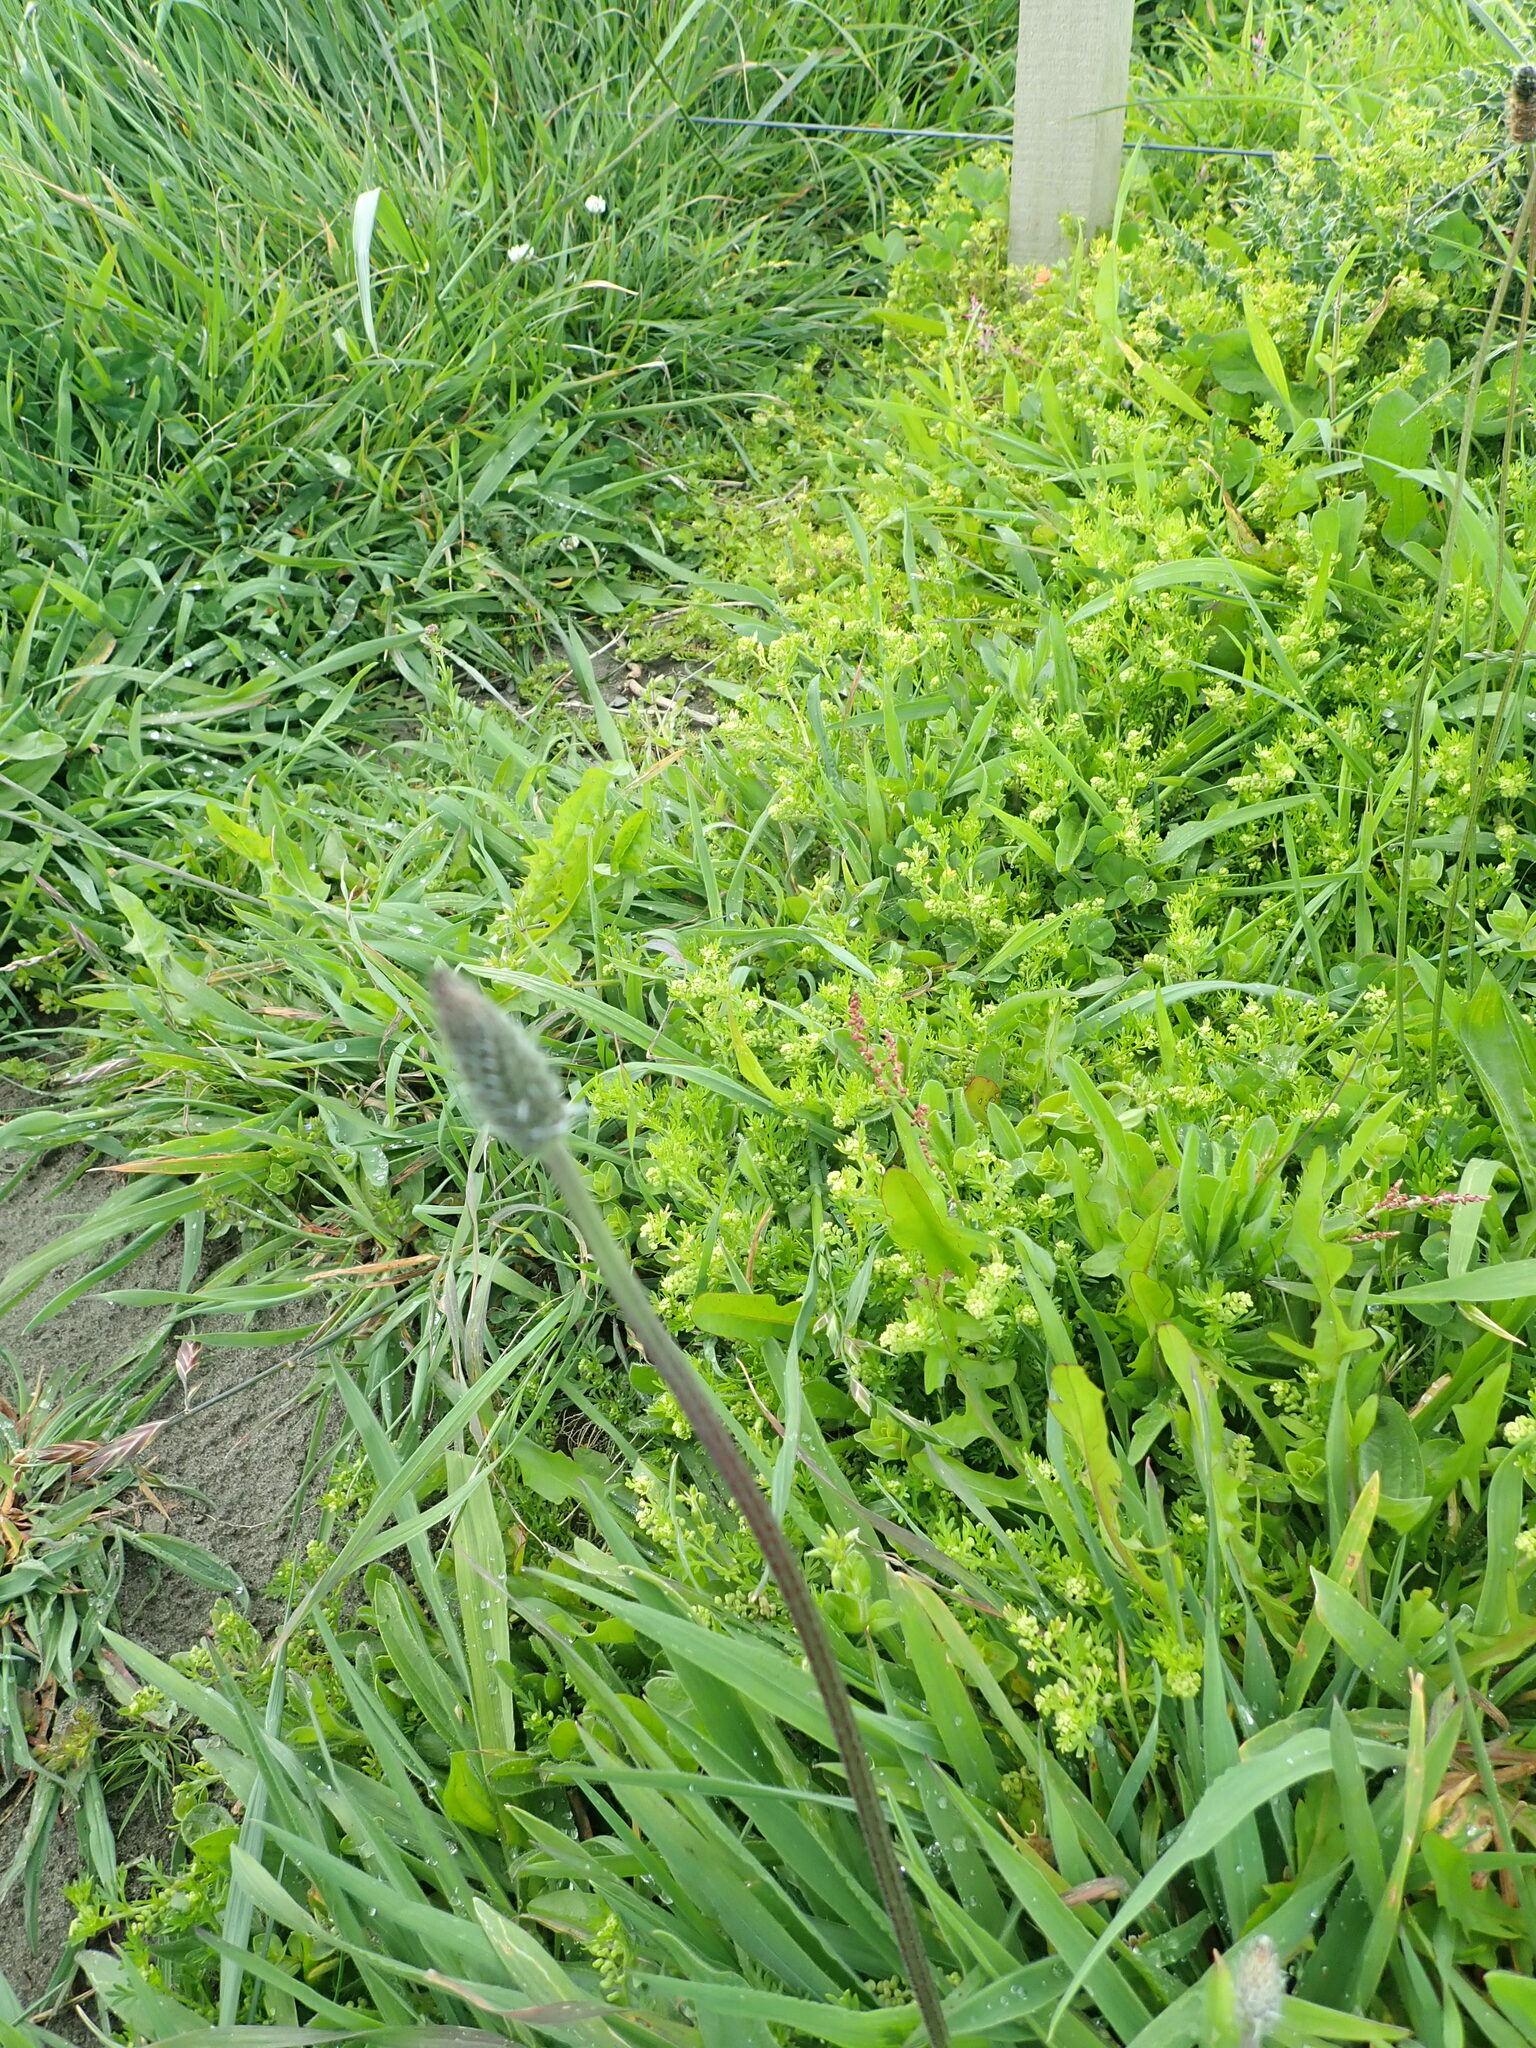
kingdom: Plantae
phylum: Tracheophyta
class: Magnoliopsida
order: Brassicales
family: Brassicaceae
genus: Lepidium
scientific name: Lepidium didymum
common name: Lesser swinecress
